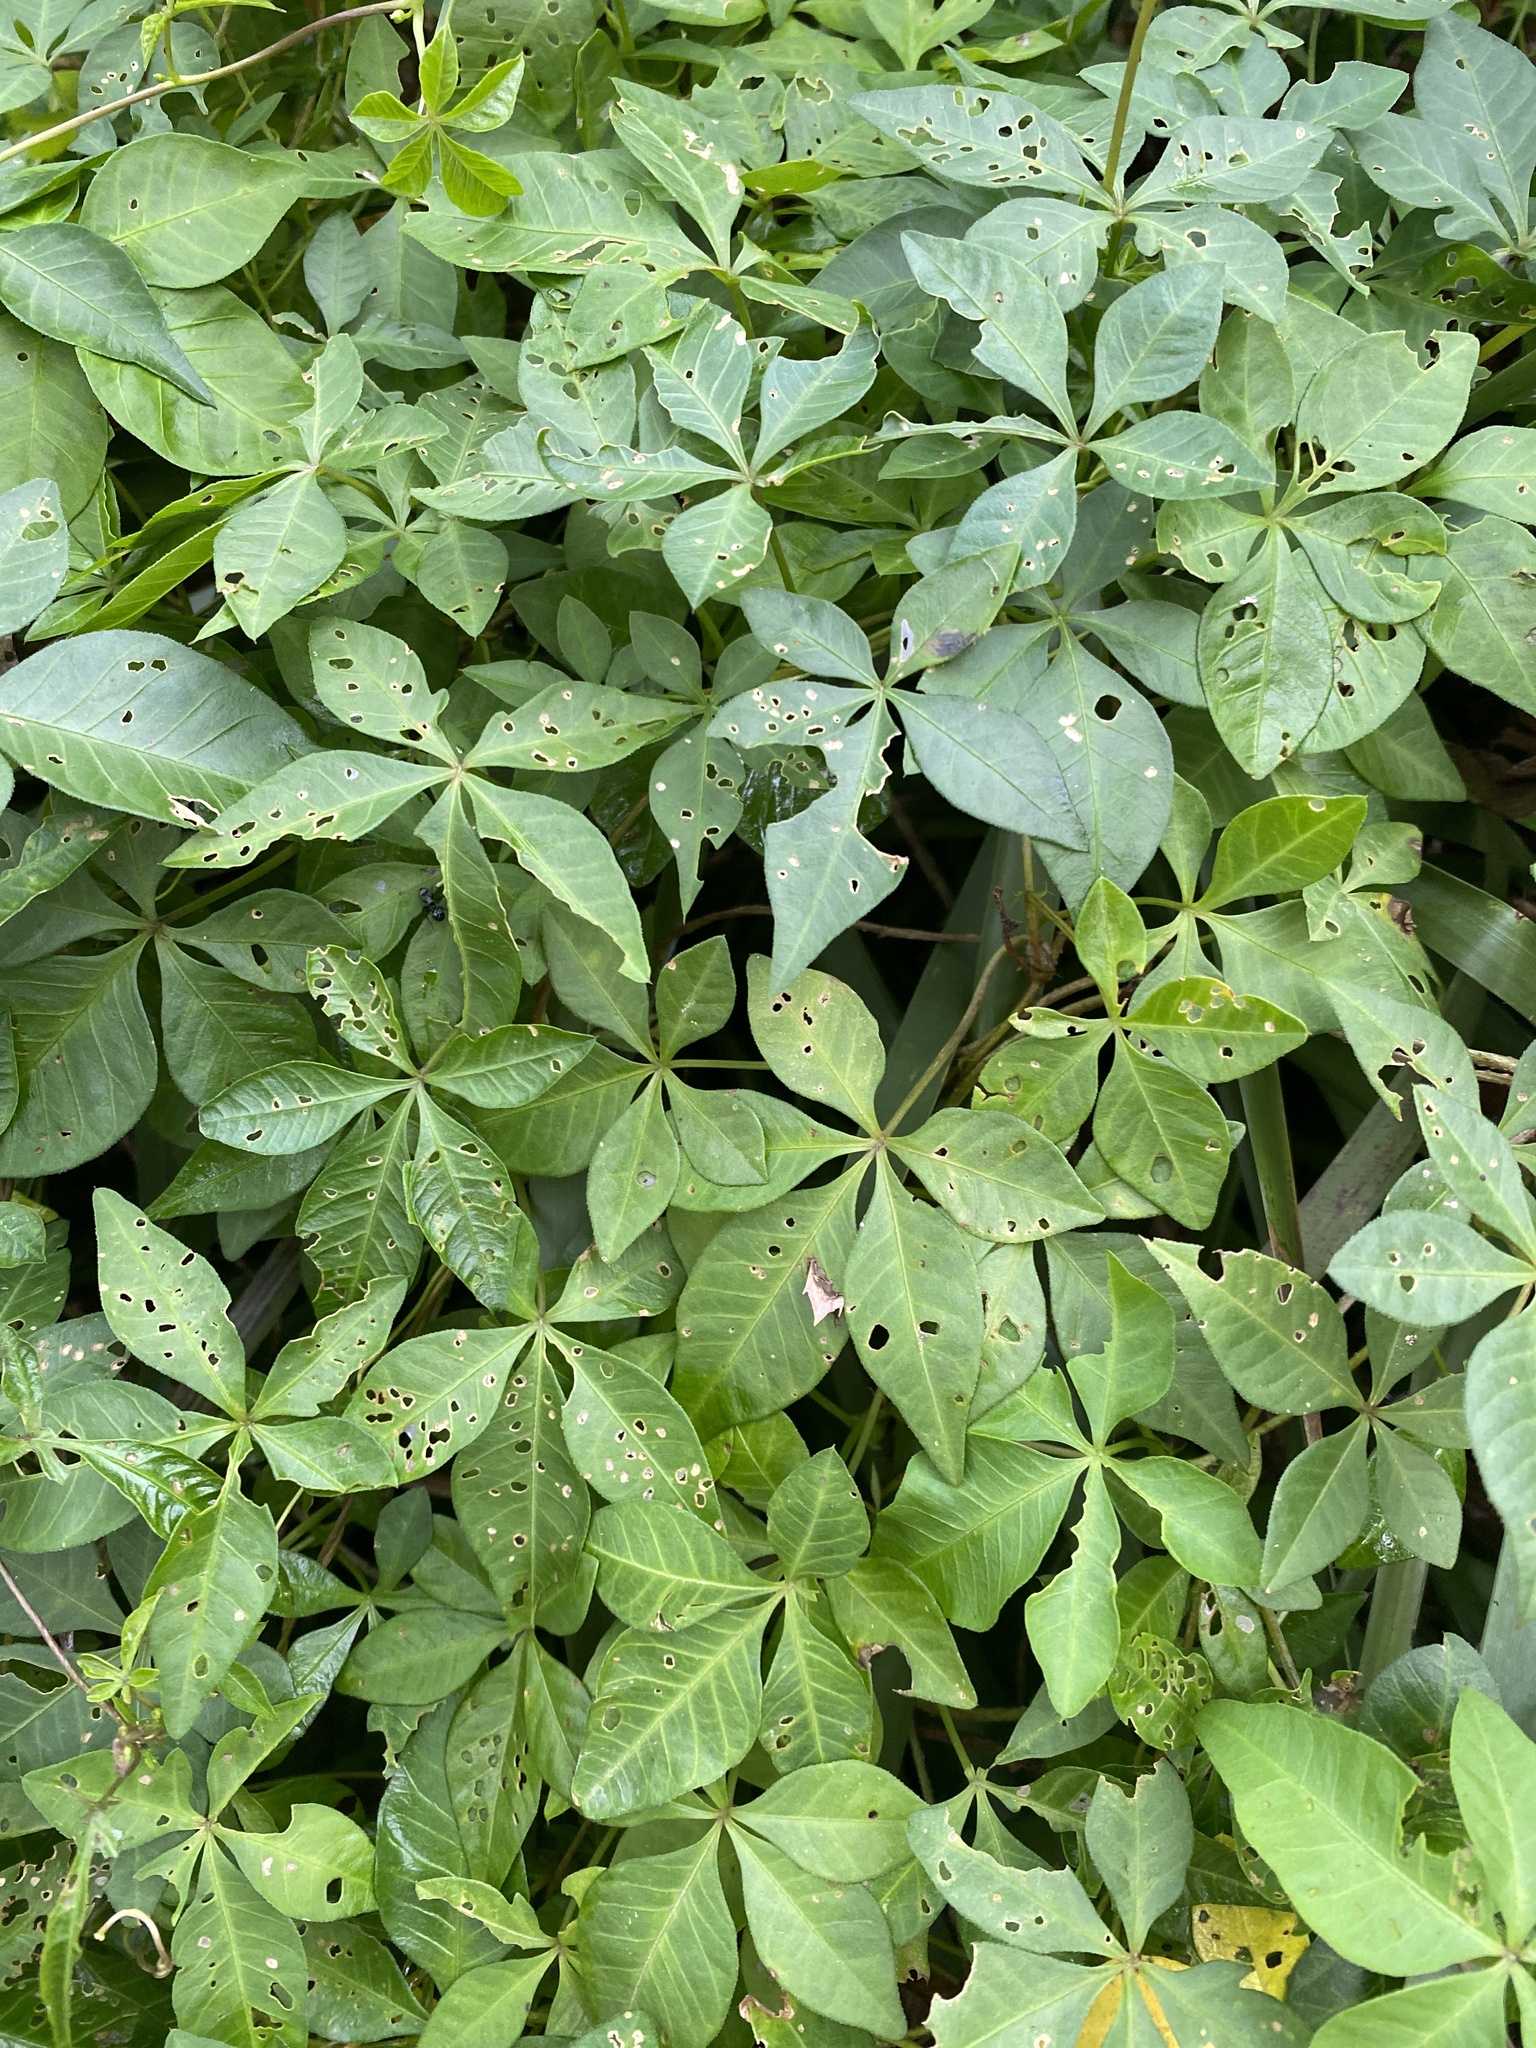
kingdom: Plantae
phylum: Tracheophyta
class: Magnoliopsida
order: Solanales
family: Convolvulaceae
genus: Ipomoea
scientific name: Ipomoea cairica
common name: Mile a minute vine
